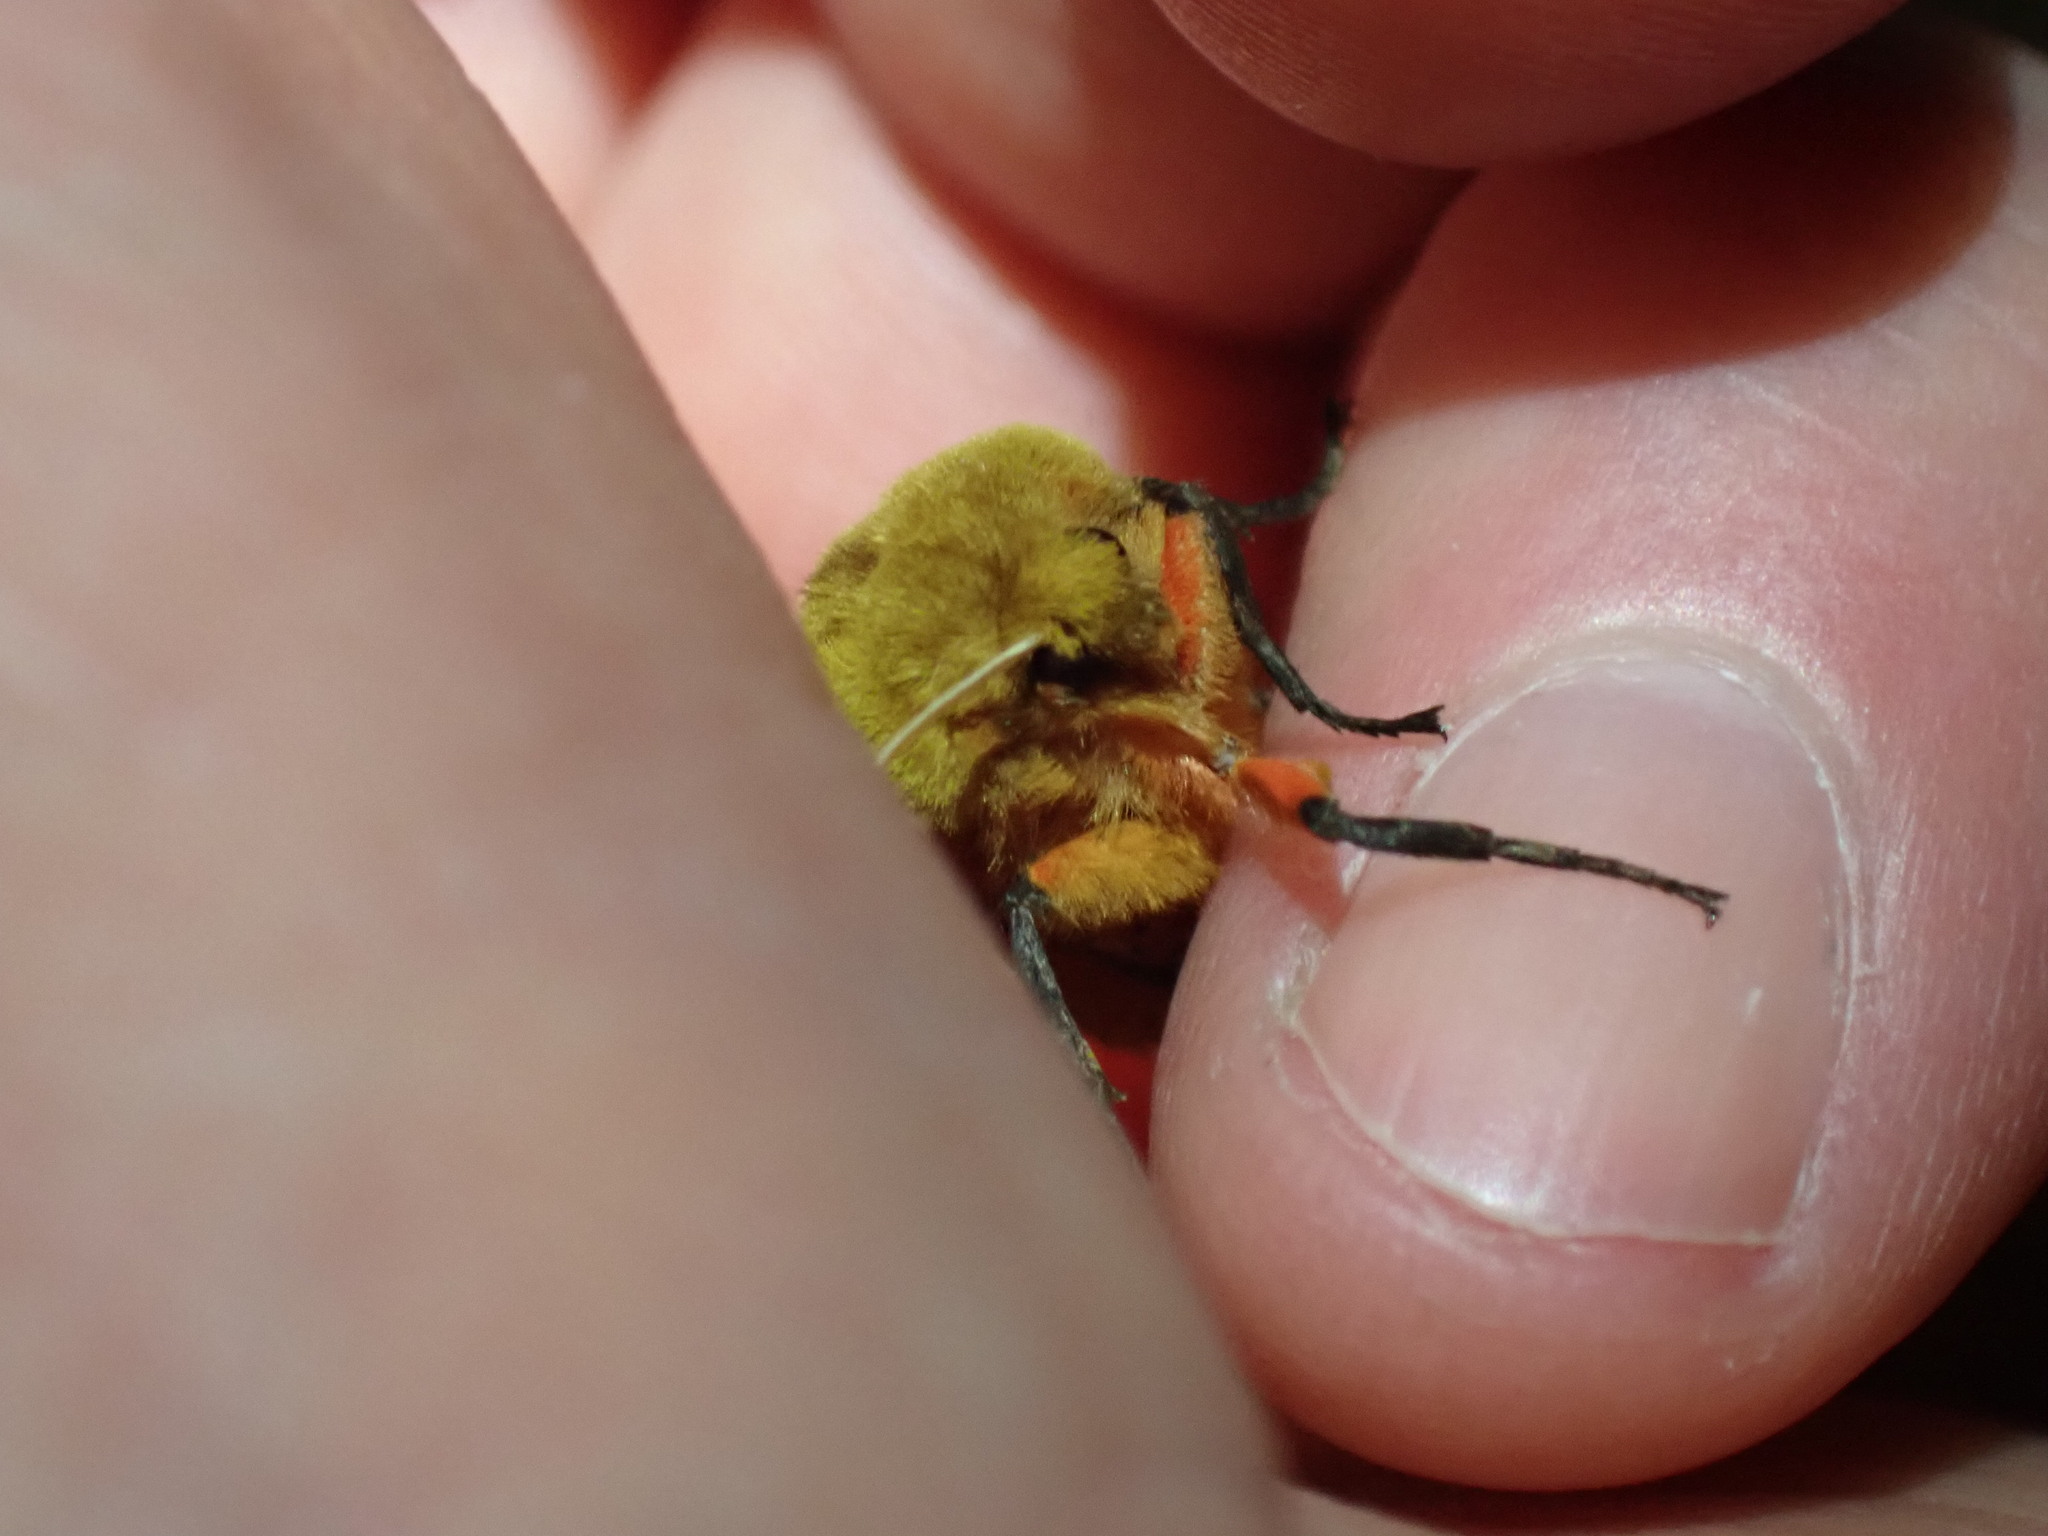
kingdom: Animalia
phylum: Arthropoda
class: Insecta
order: Lepidoptera
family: Erebidae
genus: Pyrrharctia
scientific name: Pyrrharctia isabella
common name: Isabella tiger moth
